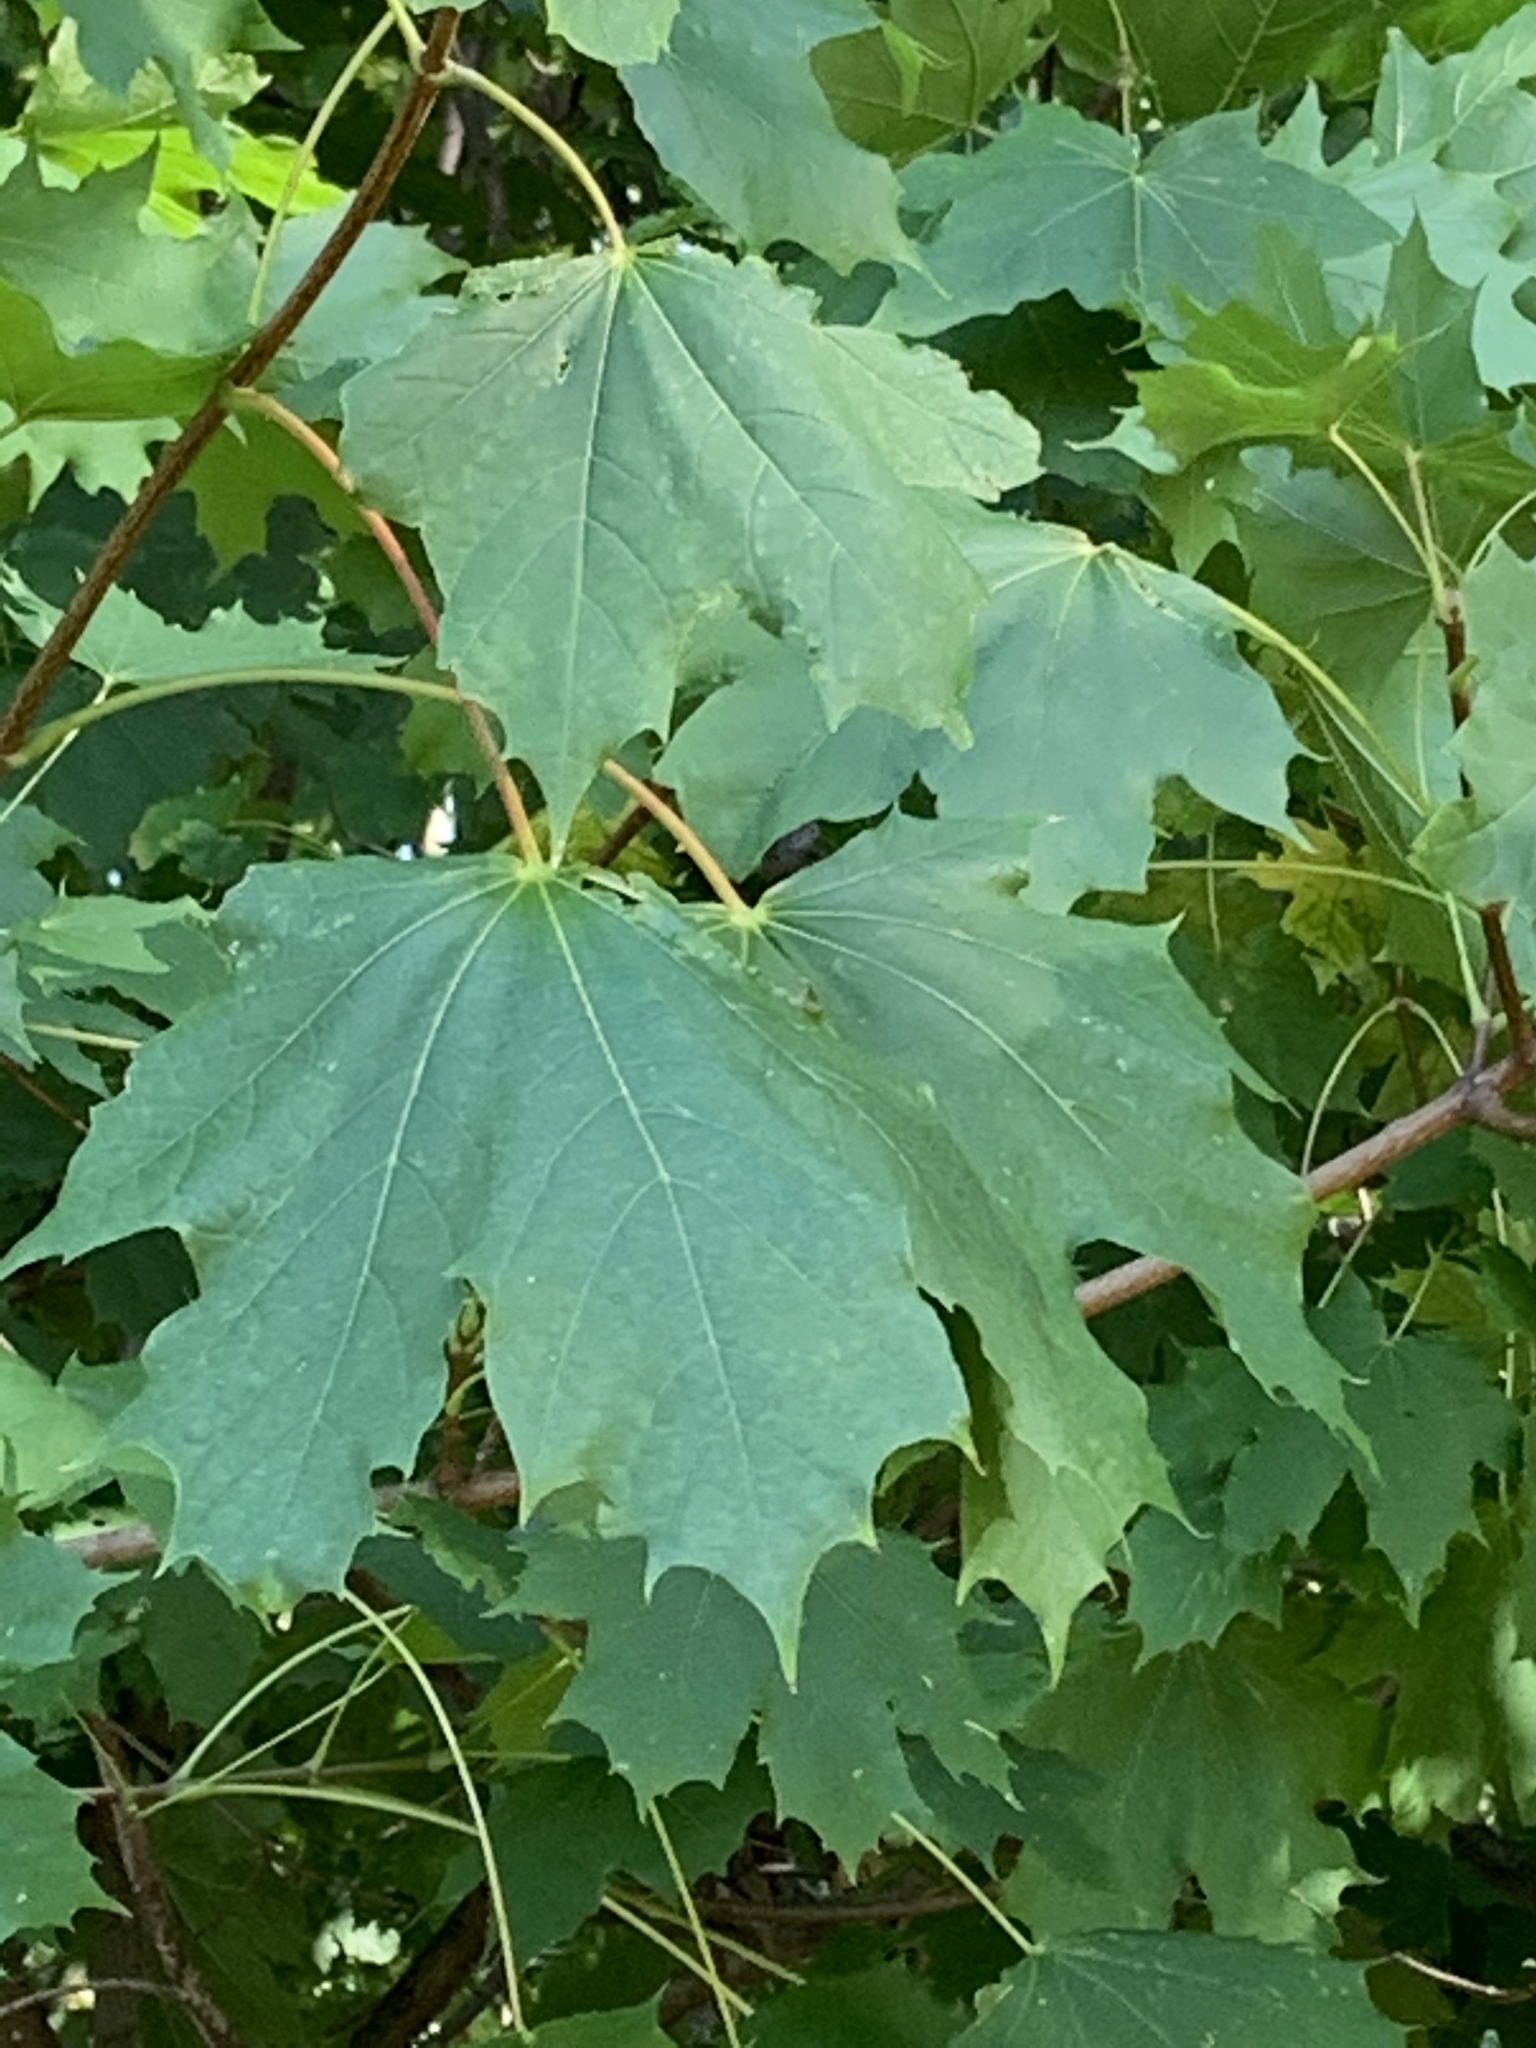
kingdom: Plantae
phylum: Tracheophyta
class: Magnoliopsida
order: Sapindales
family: Sapindaceae
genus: Acer
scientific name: Acer platanoides
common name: Norway maple
